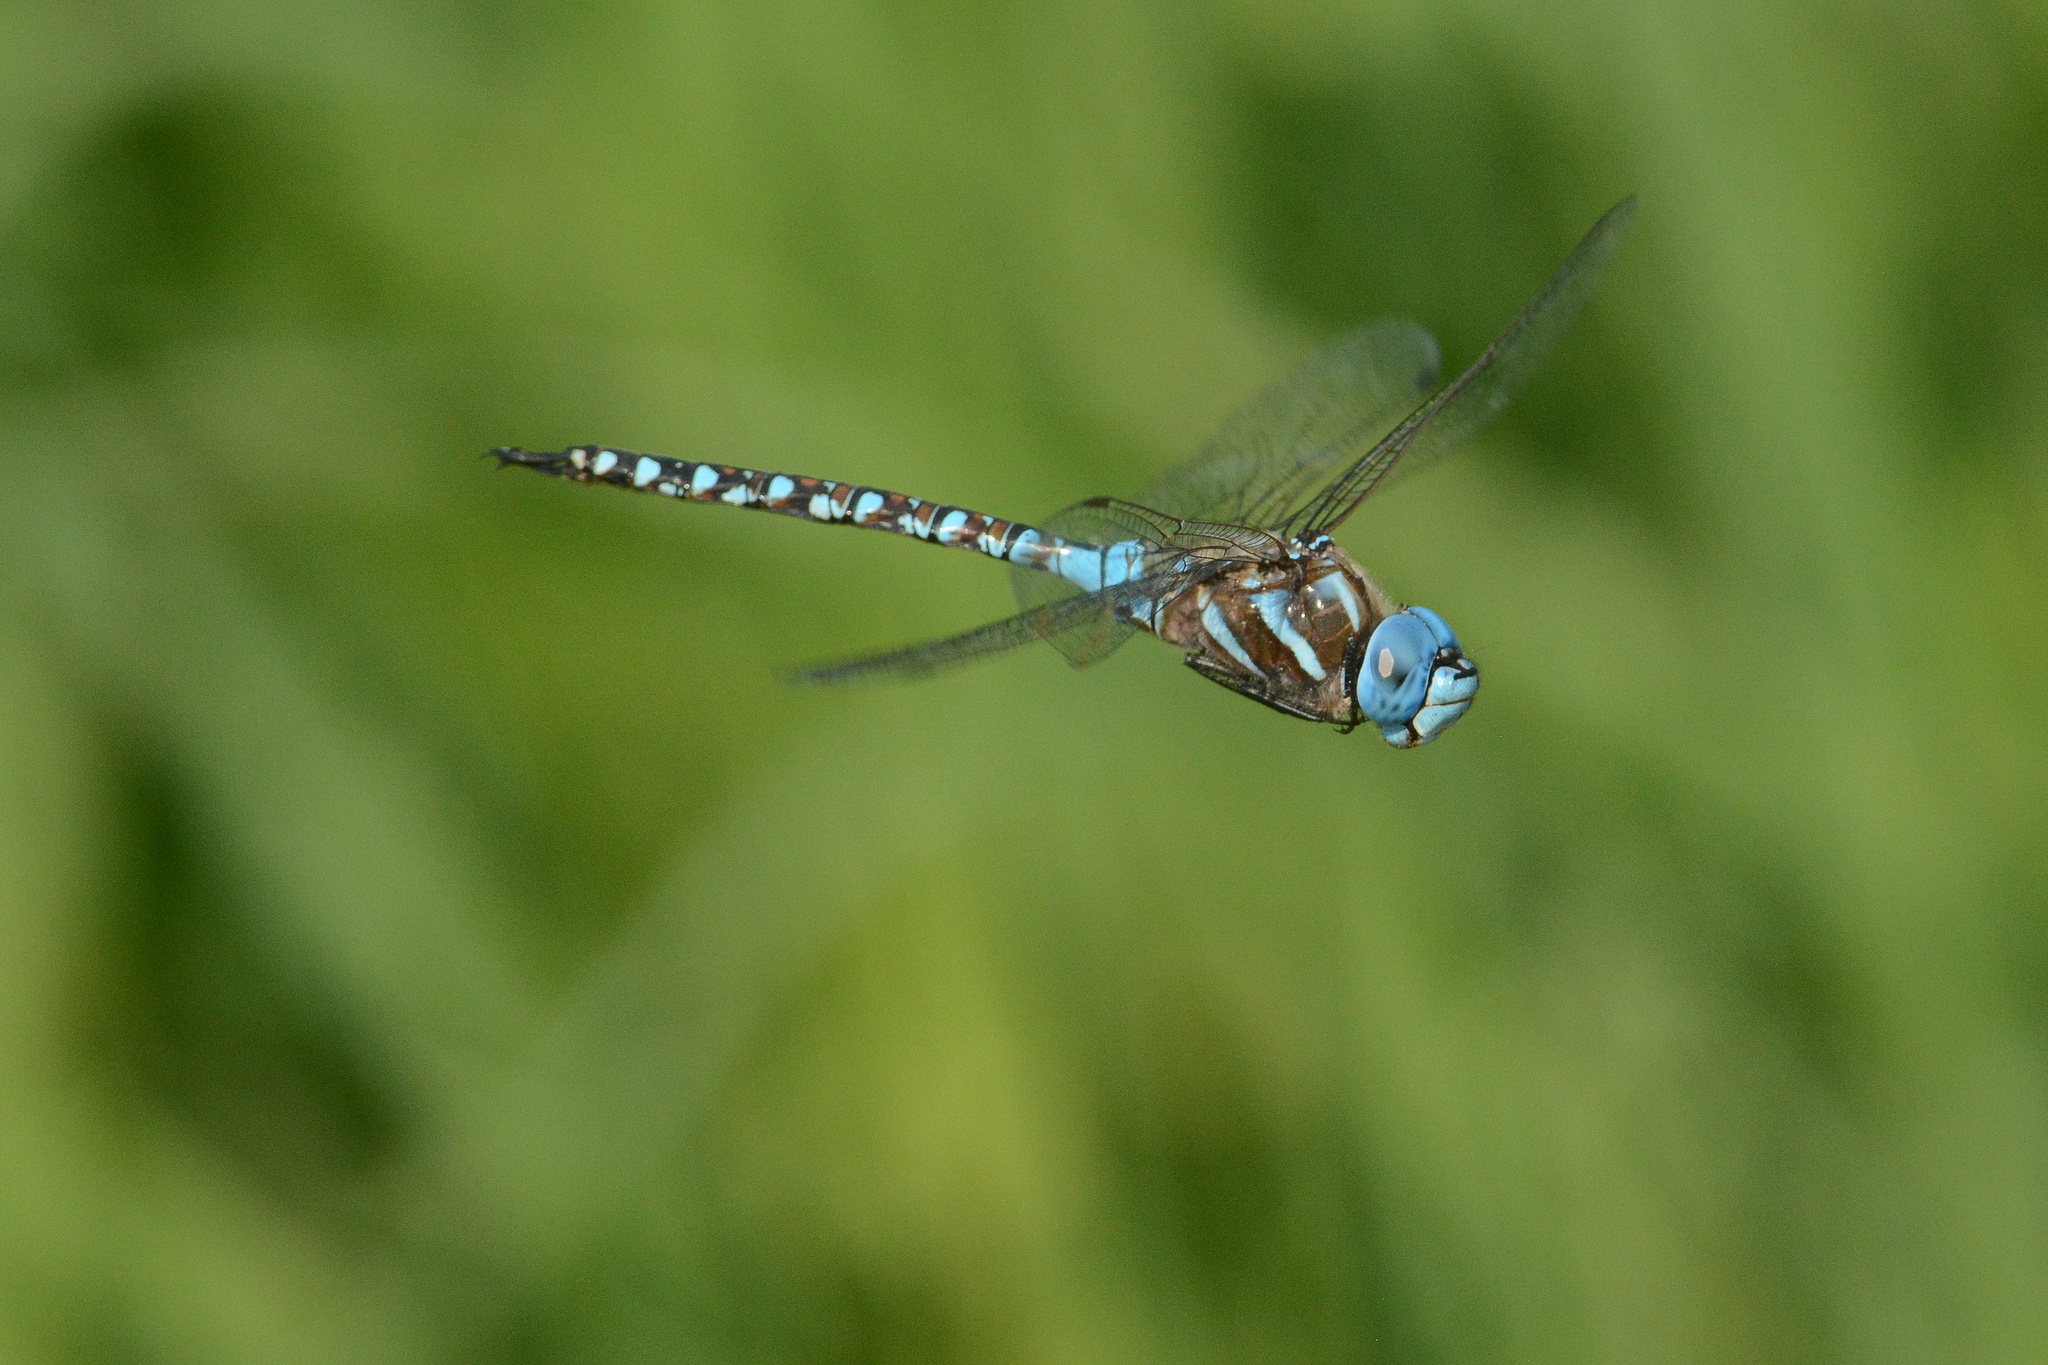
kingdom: Animalia
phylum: Arthropoda
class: Insecta
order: Odonata
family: Aeshnidae
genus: Rhionaeschna
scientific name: Rhionaeschna multicolor
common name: Blue-eyed darner
